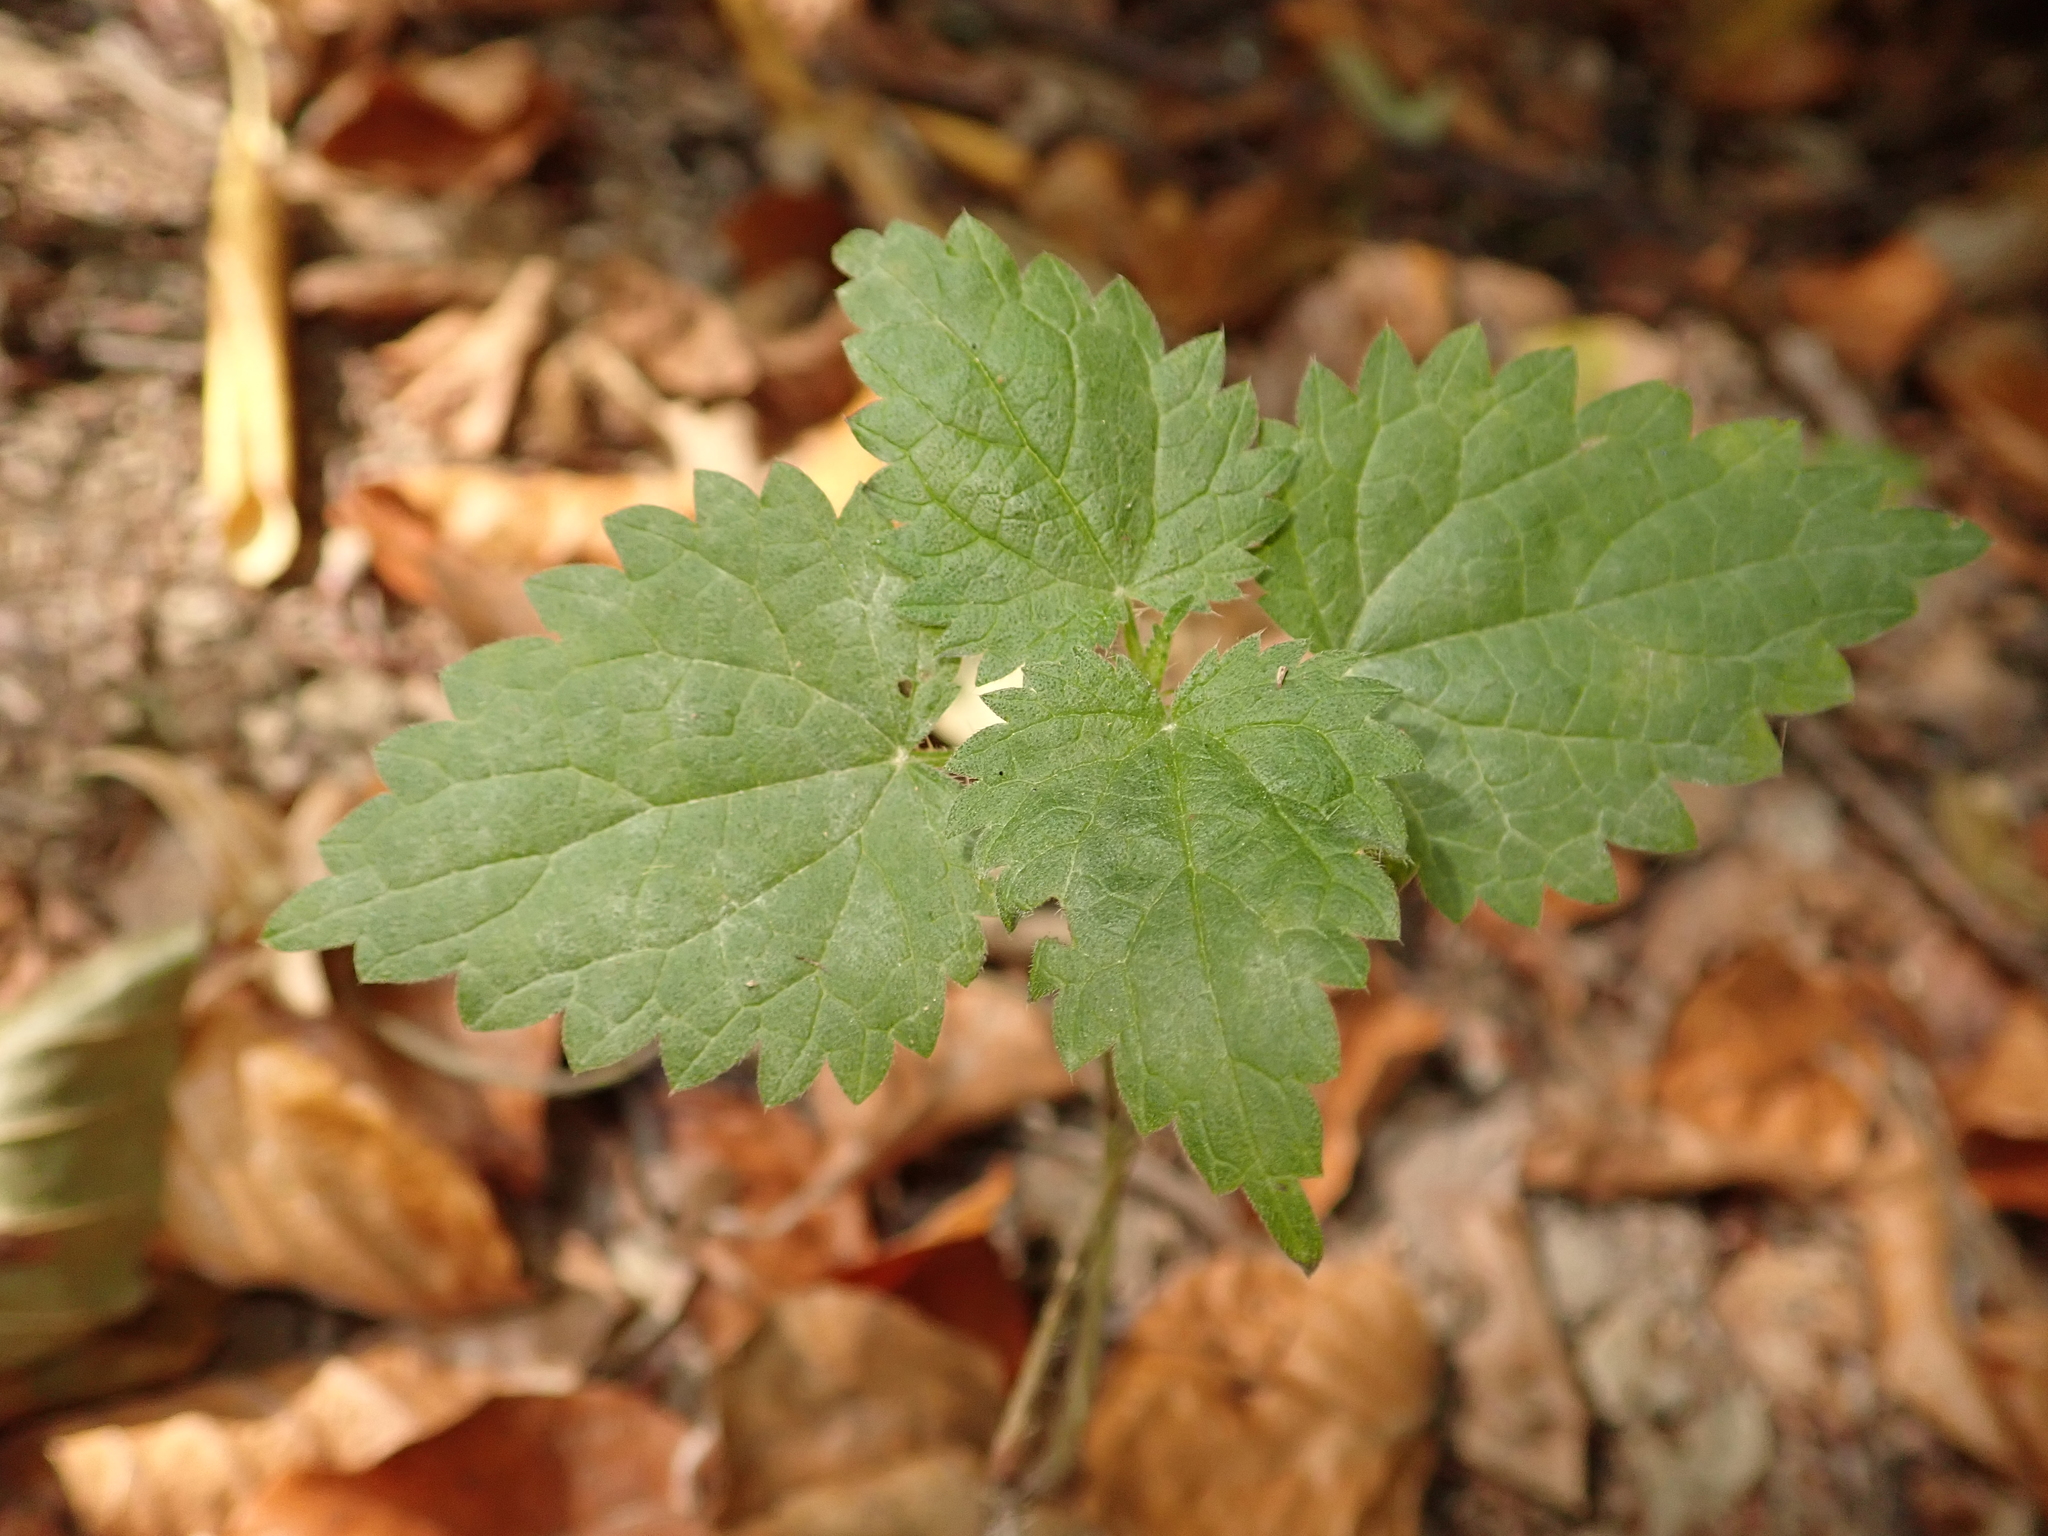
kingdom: Plantae
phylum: Tracheophyta
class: Magnoliopsida
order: Rosales
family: Urticaceae
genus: Urtica
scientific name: Urtica dioica
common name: Common nettle
